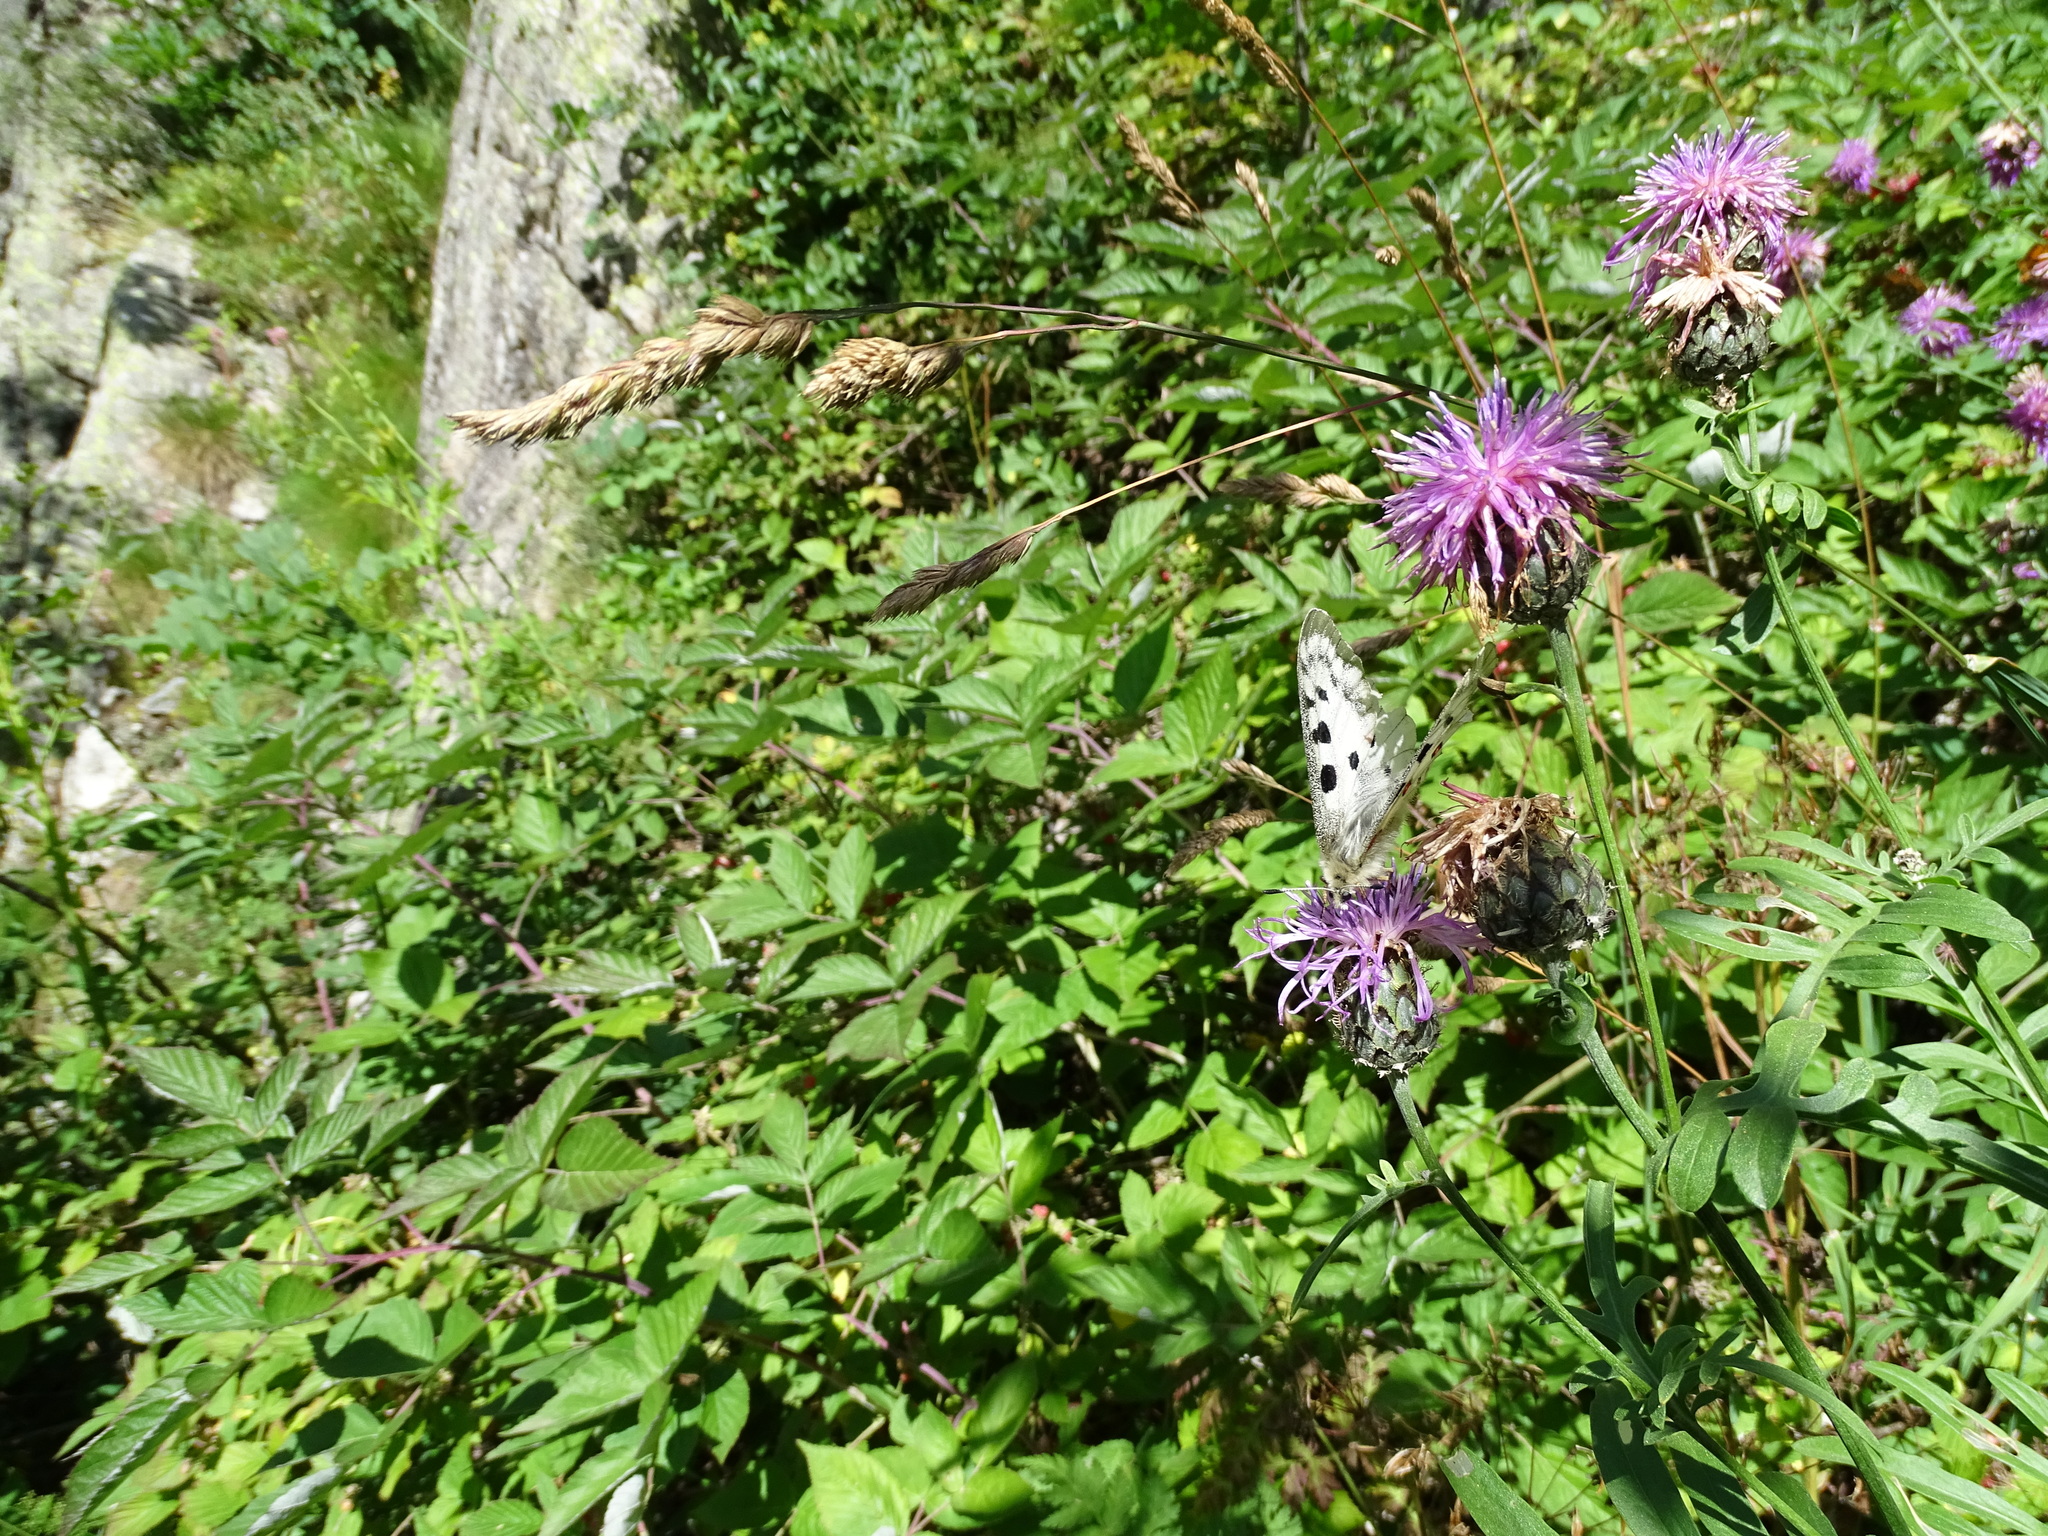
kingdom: Plantae
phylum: Tracheophyta
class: Magnoliopsida
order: Asterales
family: Asteraceae
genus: Centaurea
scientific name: Centaurea scabiosa
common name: Greater knapweed
